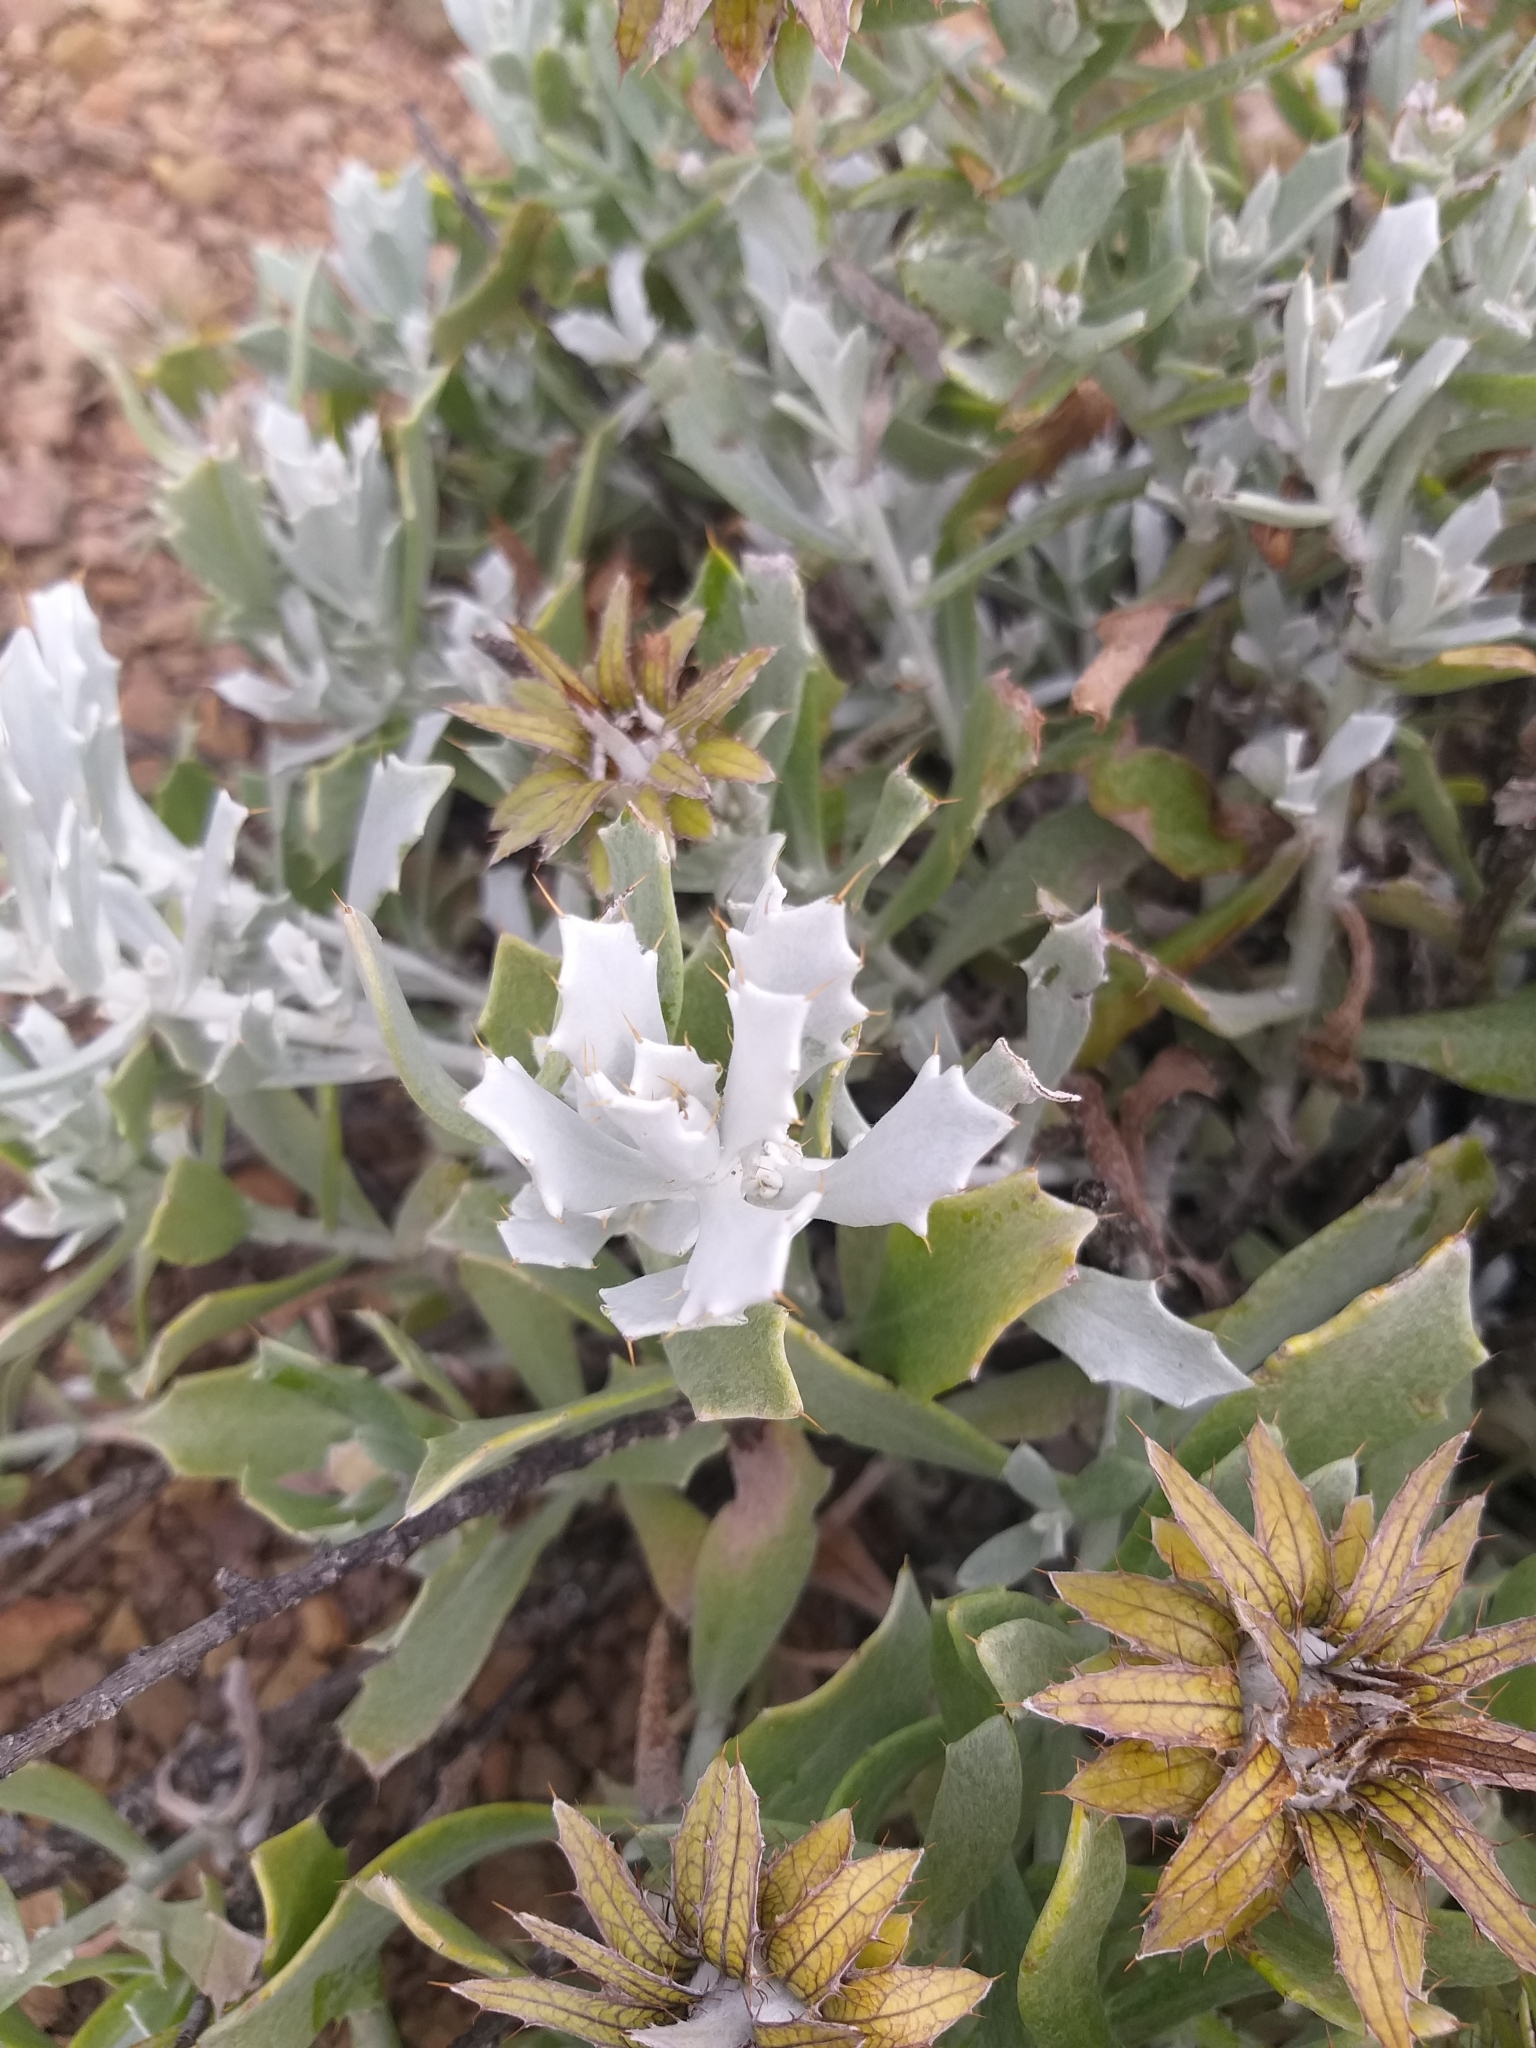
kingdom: Plantae
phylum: Tracheophyta
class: Magnoliopsida
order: Asterales
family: Asteraceae
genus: Berkheya
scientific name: Berkheya cuneata
